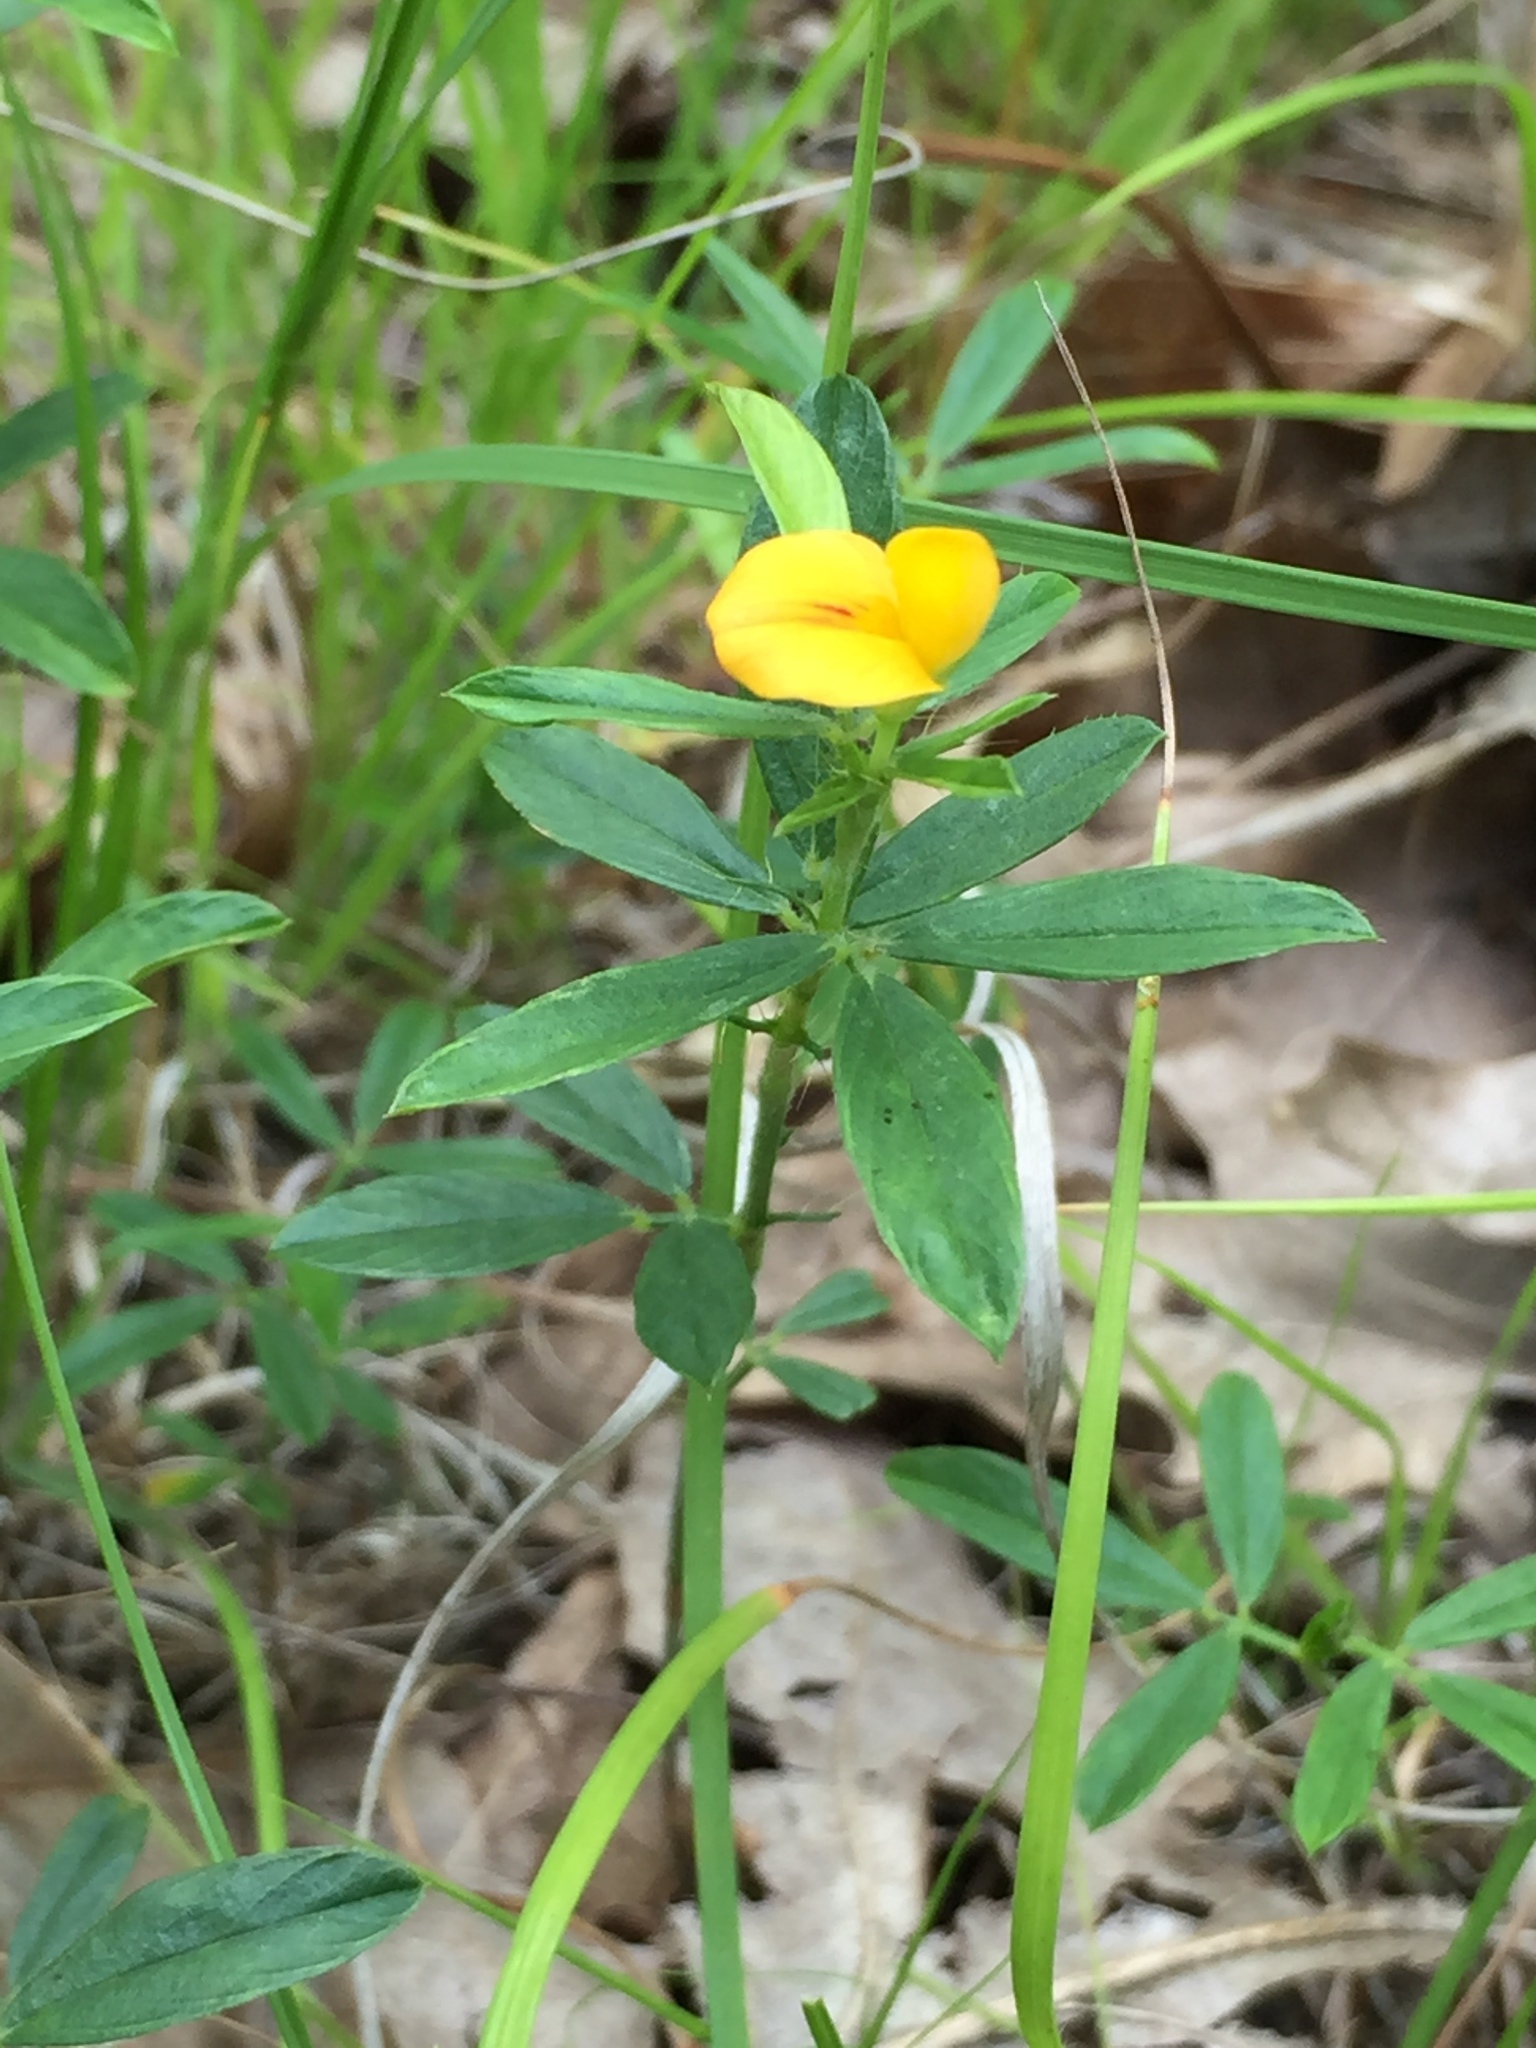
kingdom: Plantae
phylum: Tracheophyta
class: Magnoliopsida
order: Fabales
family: Fabaceae
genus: Stylosanthes
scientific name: Stylosanthes biflora
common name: Two-flower pencil-flower
